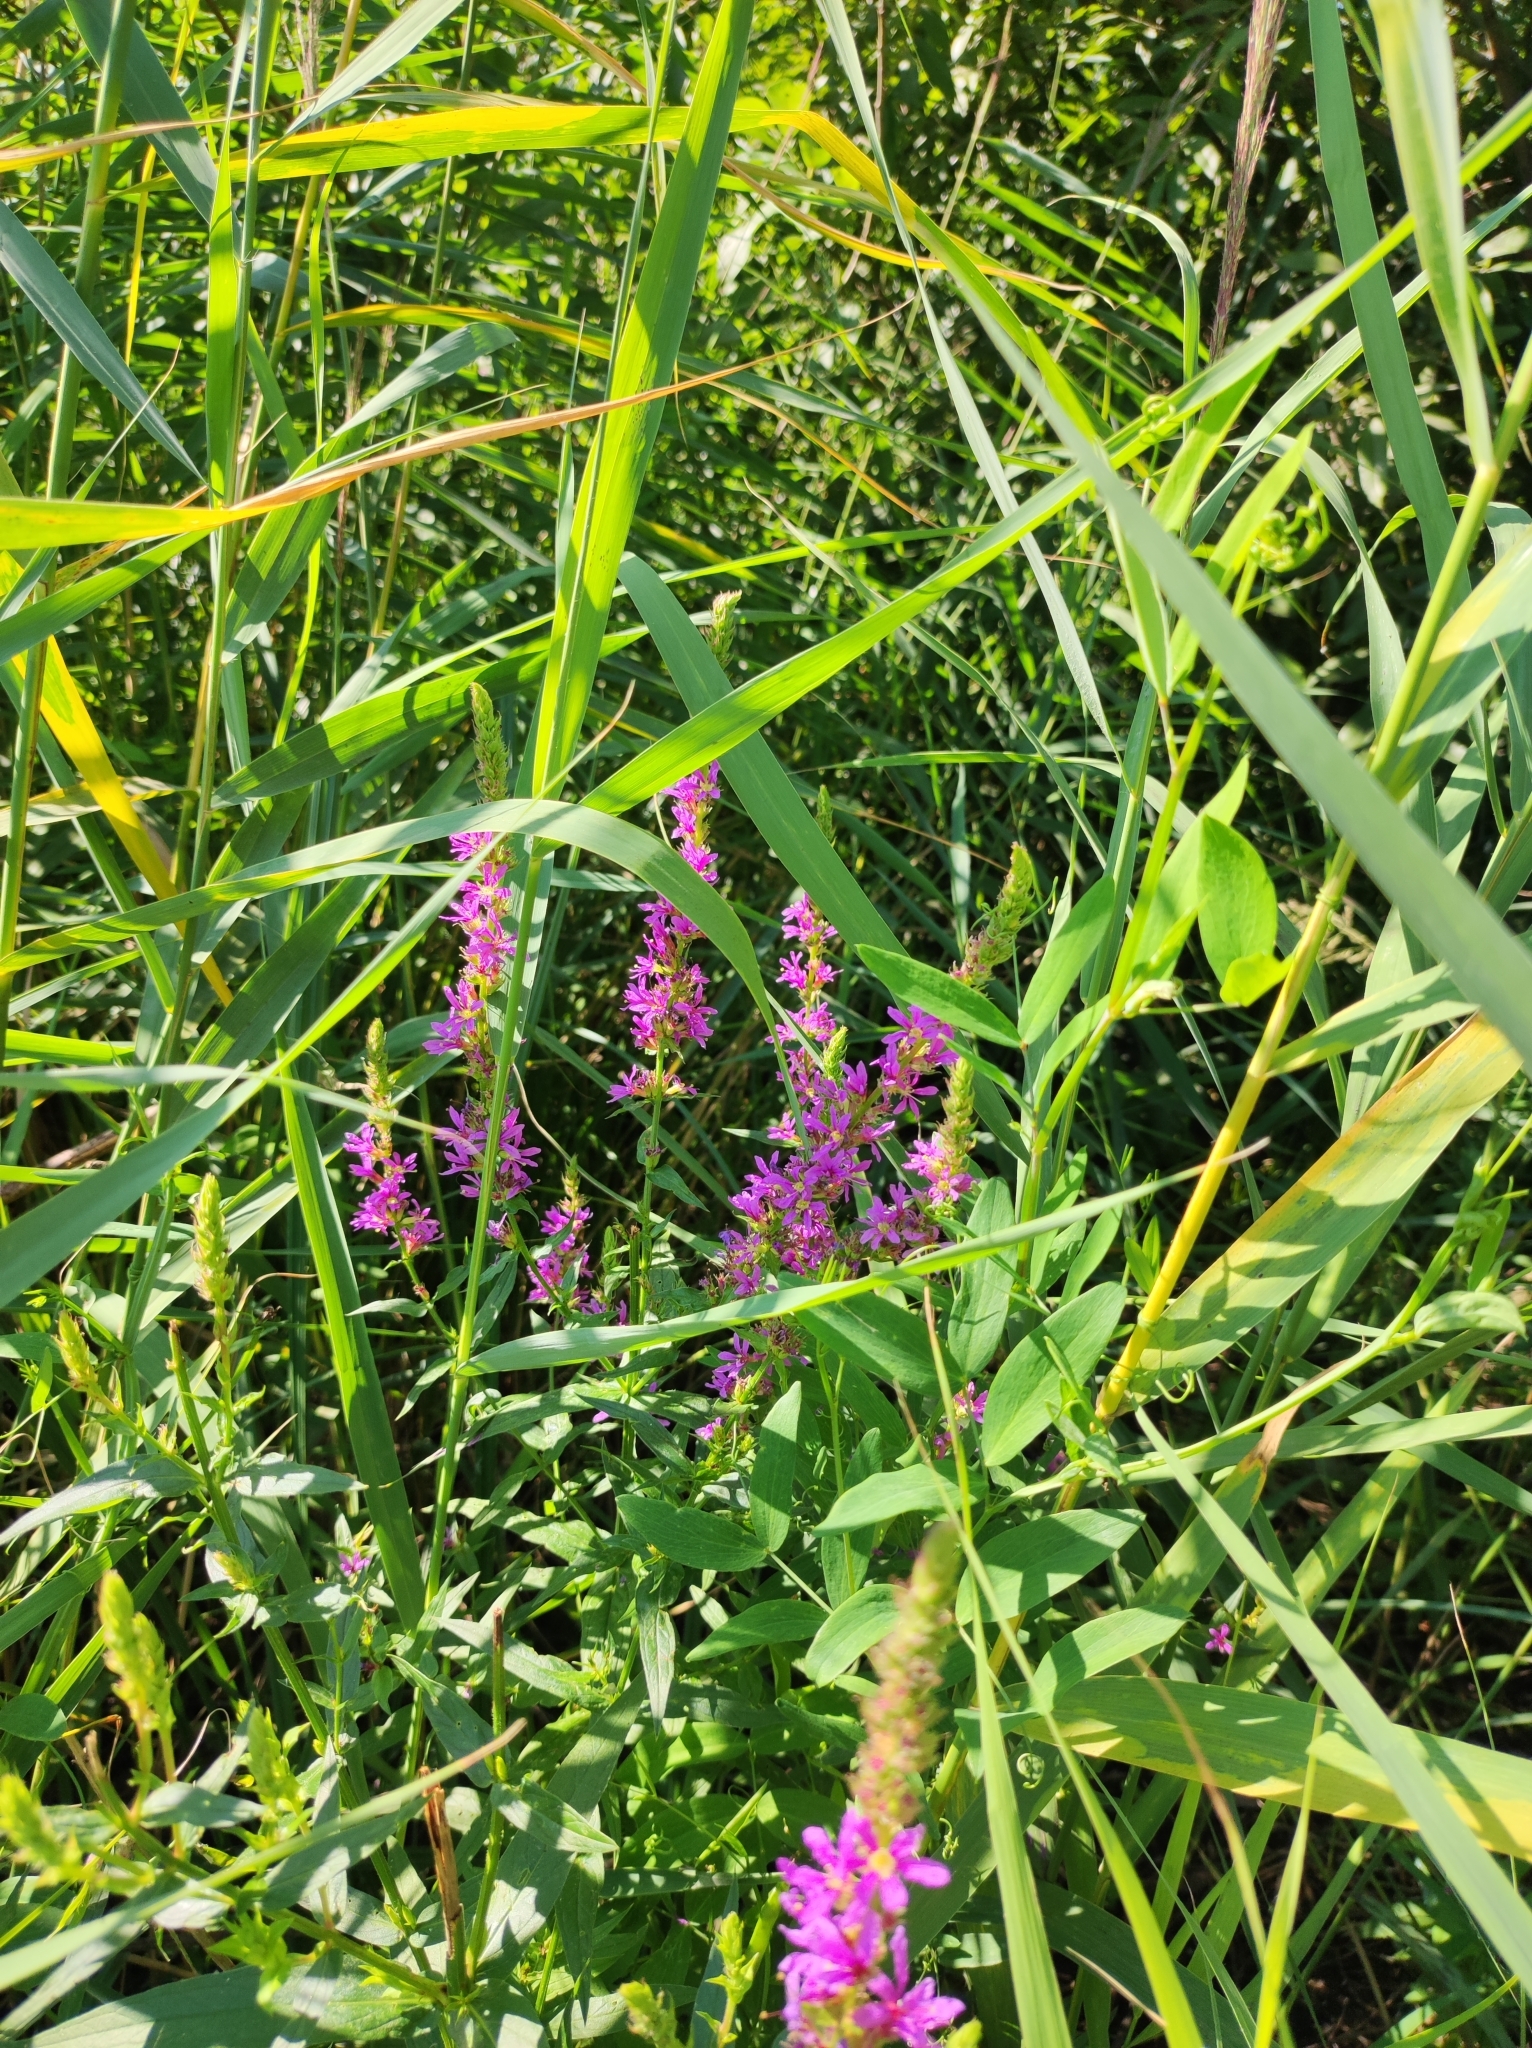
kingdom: Plantae
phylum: Tracheophyta
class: Magnoliopsida
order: Myrtales
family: Lythraceae
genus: Lythrum
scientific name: Lythrum salicaria
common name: Purple loosestrife
